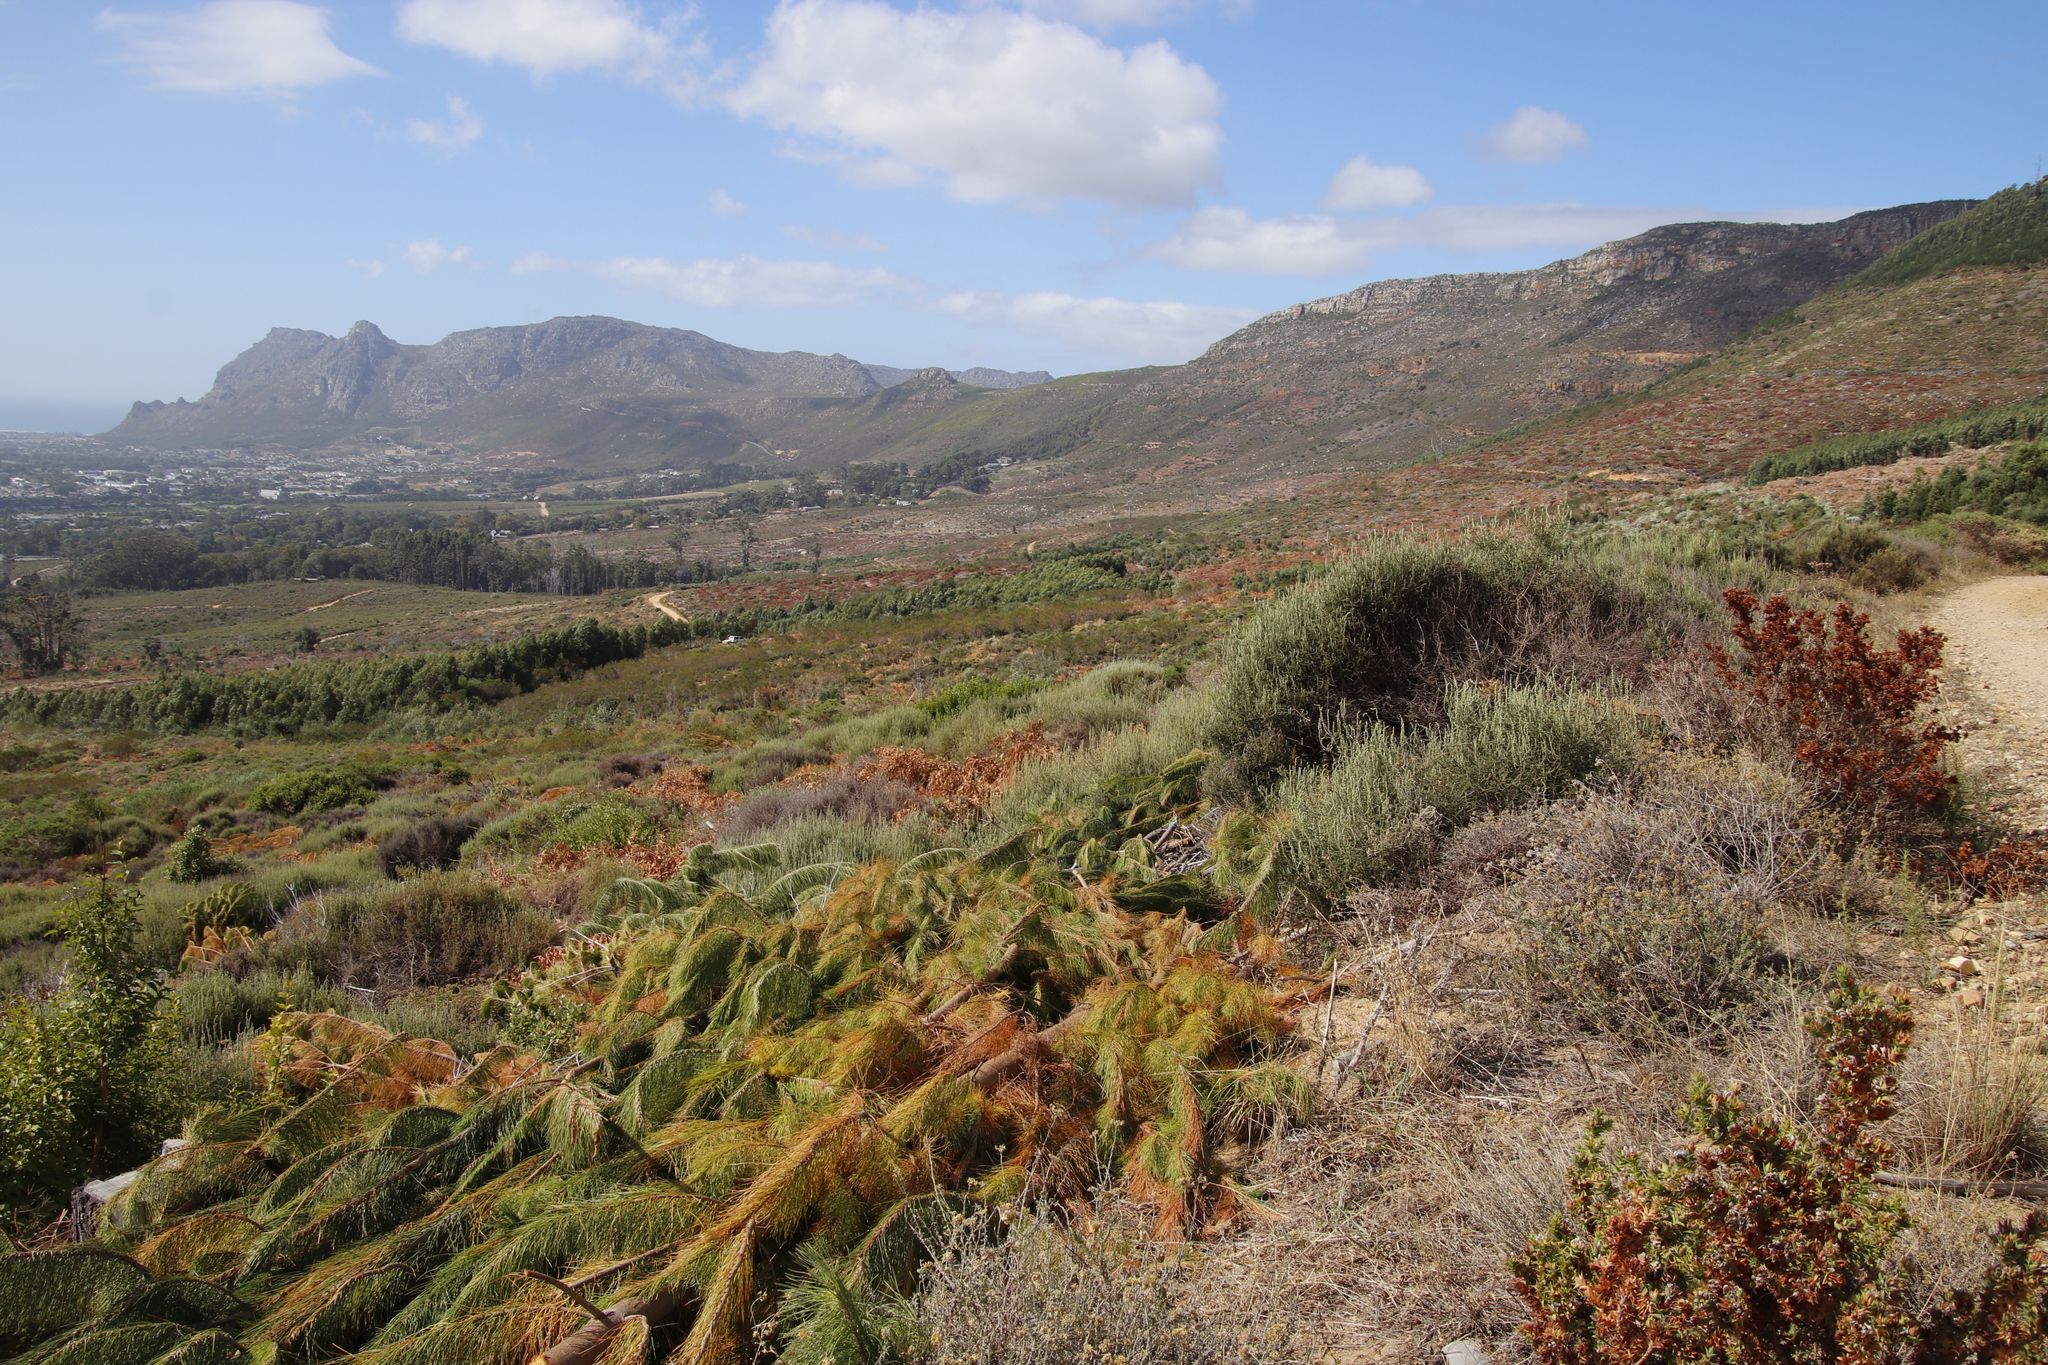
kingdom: Plantae
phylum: Tracheophyta
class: Magnoliopsida
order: Asterales
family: Asteraceae
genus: Seriphium
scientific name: Seriphium cinereum
